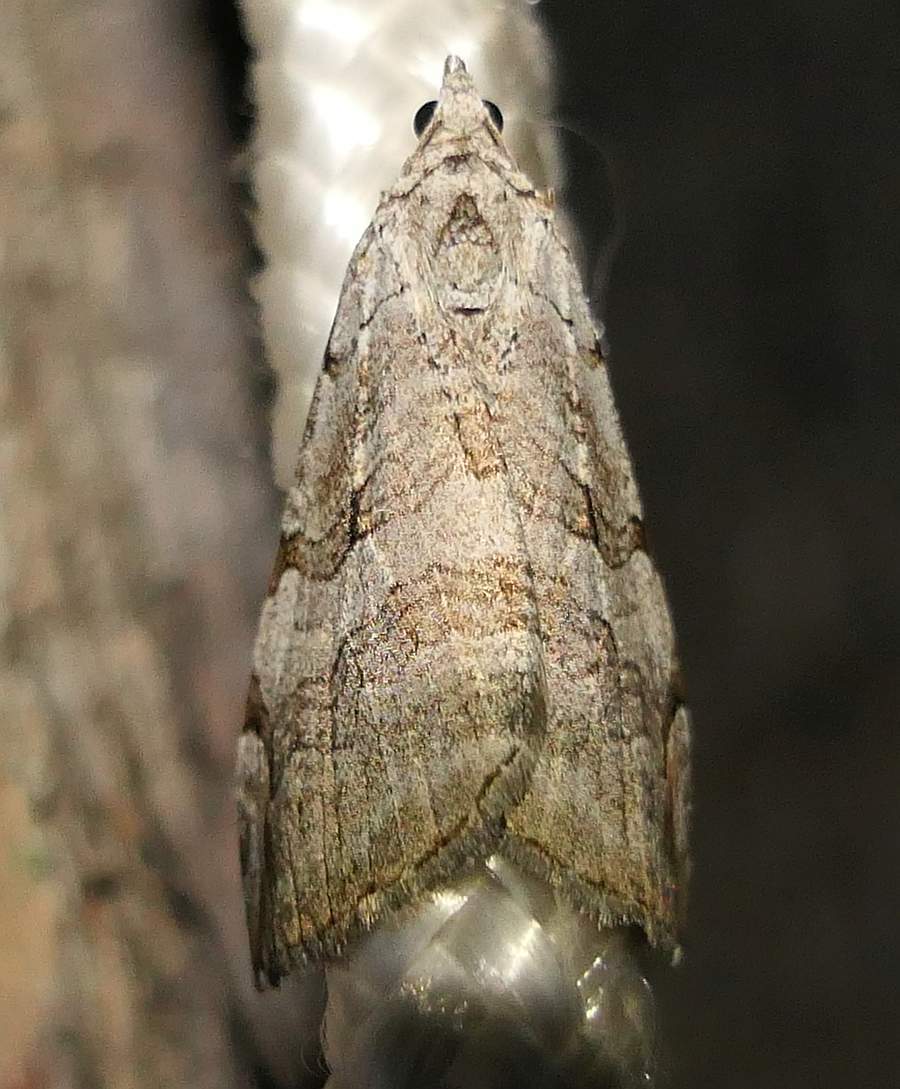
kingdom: Animalia
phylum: Arthropoda
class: Insecta
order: Lepidoptera
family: Geometridae
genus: Aplocera
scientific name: Aplocera plagiata
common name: Treble-bar
